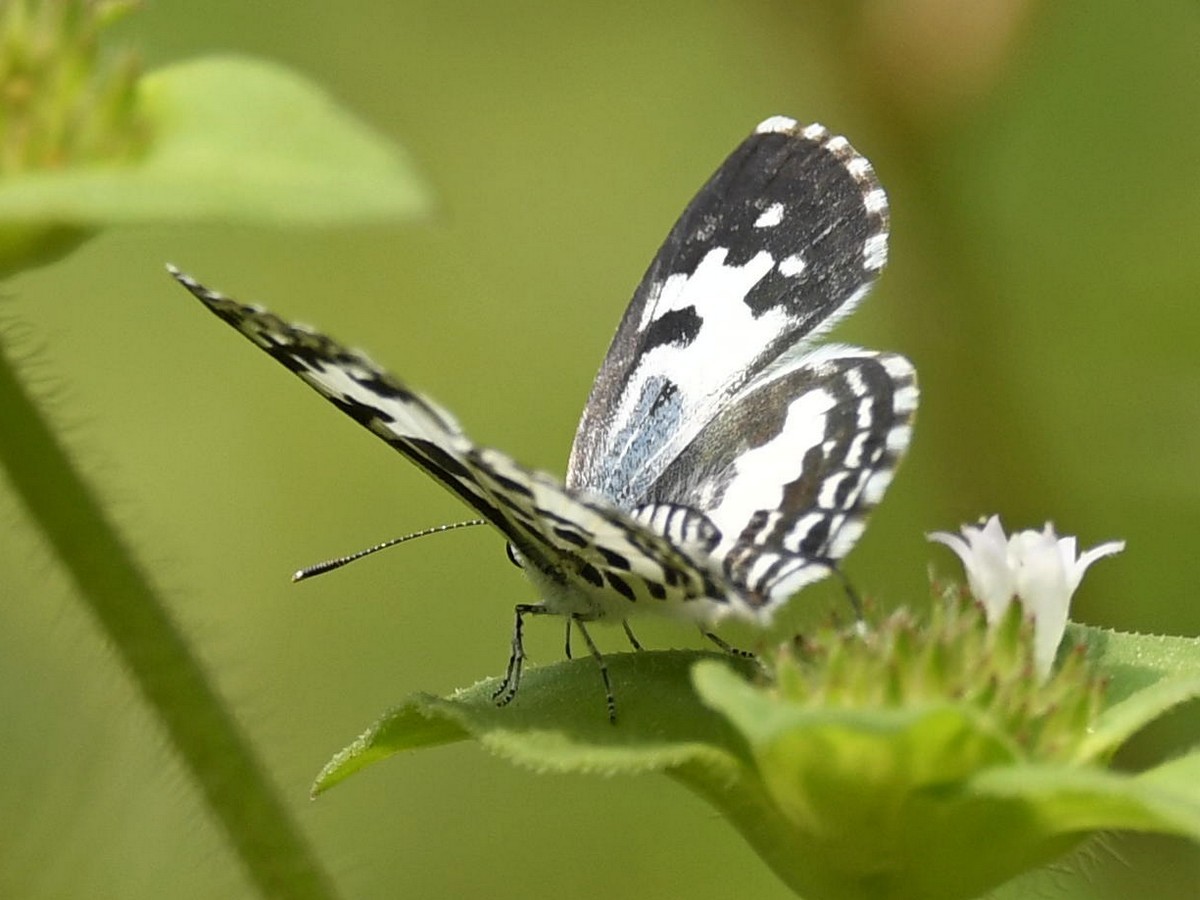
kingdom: Animalia
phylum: Arthropoda
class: Insecta
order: Lepidoptera
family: Lycaenidae
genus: Castalius
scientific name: Castalius rosimon
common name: Common pierrot
